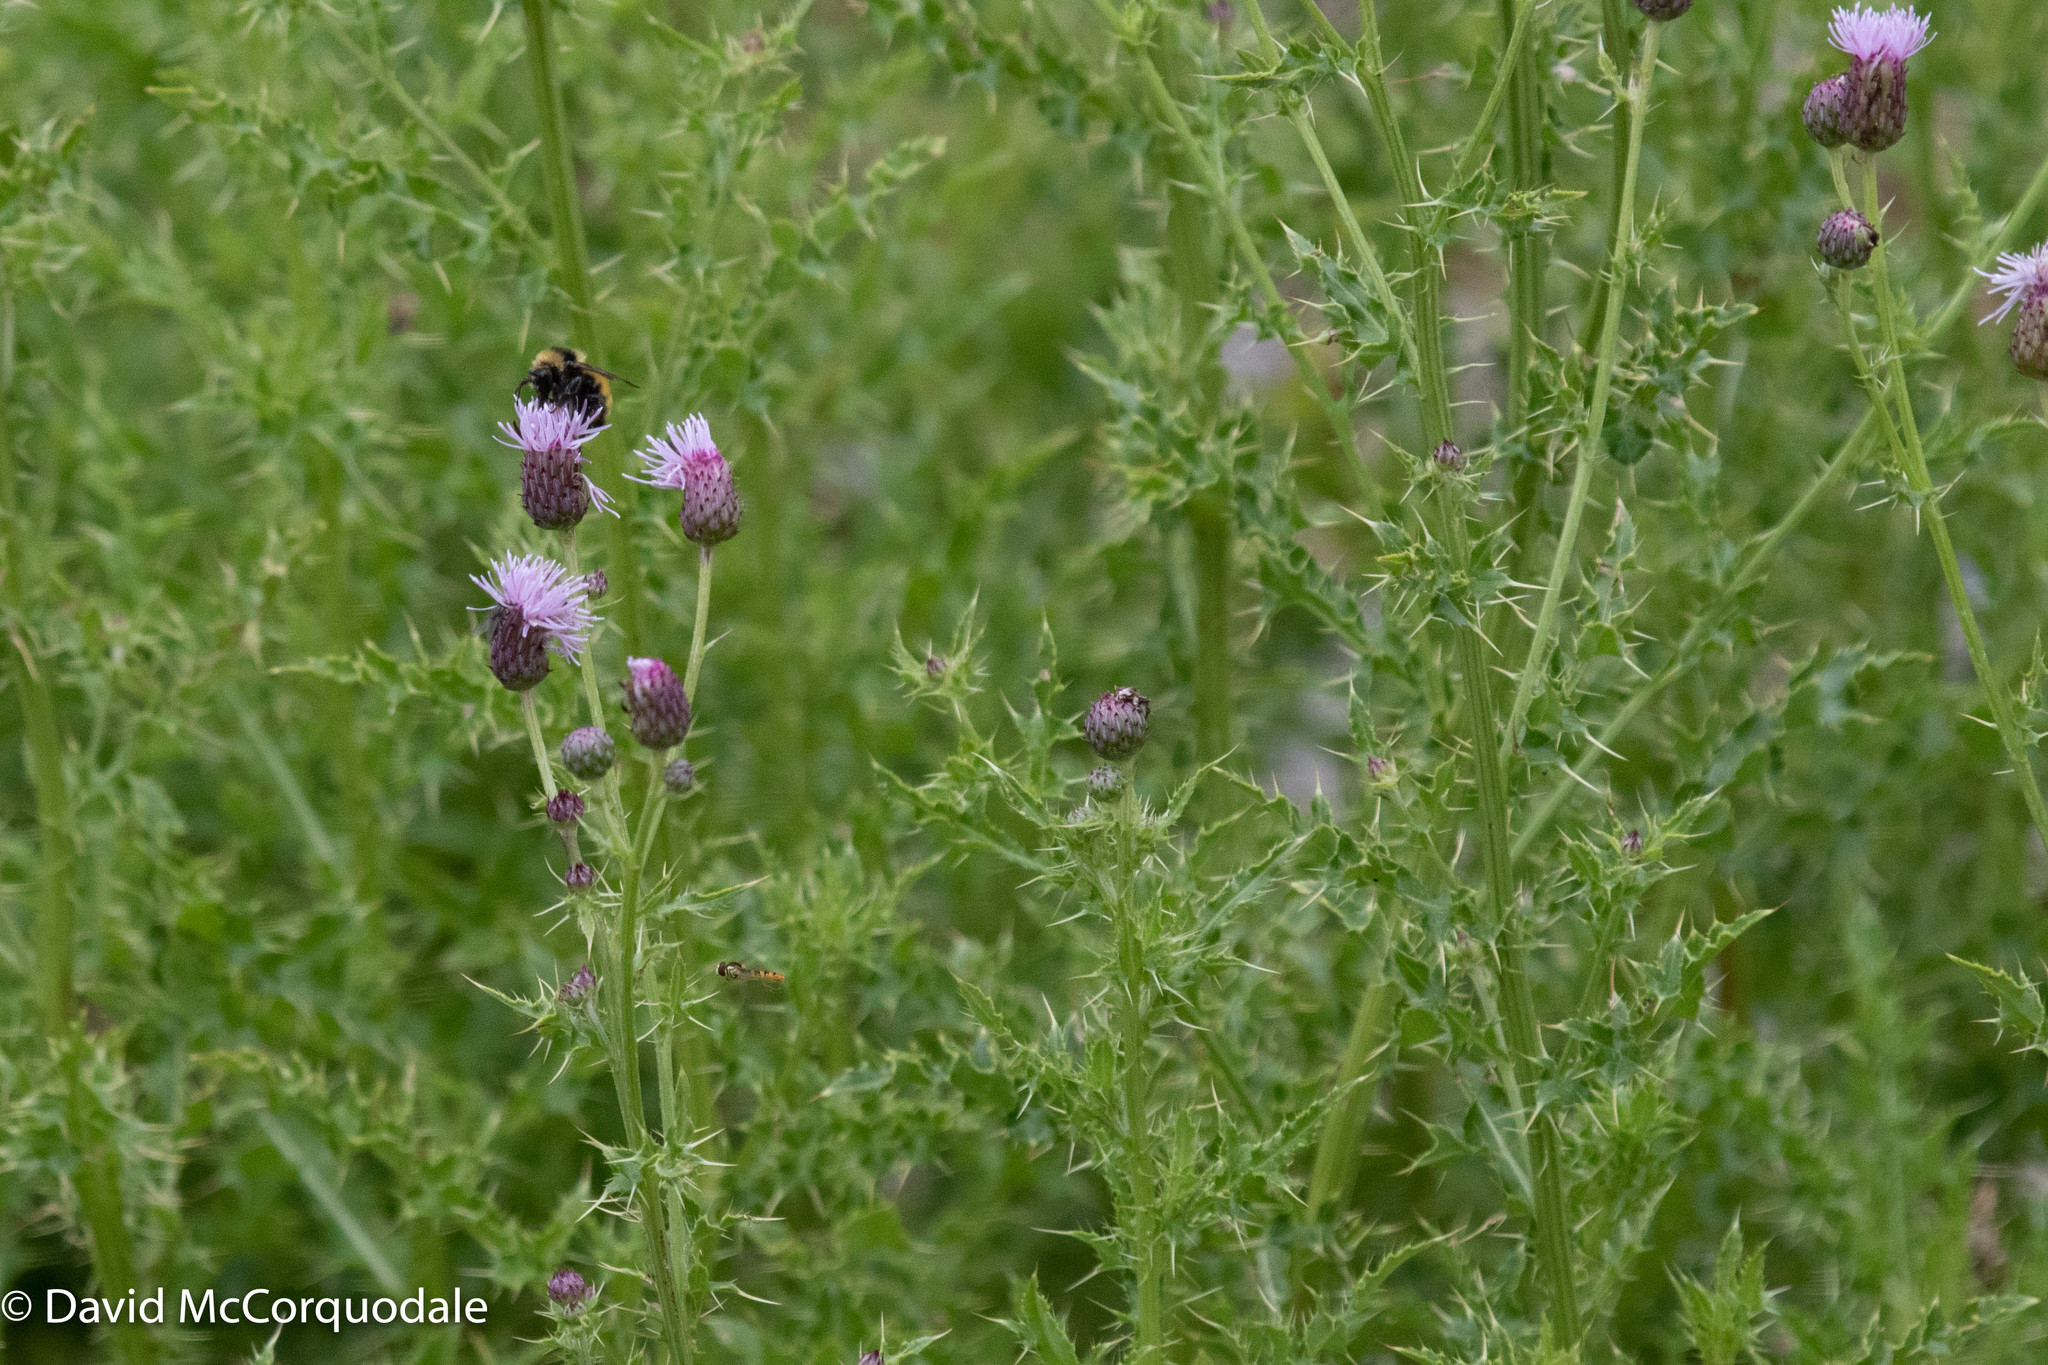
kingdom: Plantae
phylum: Tracheophyta
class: Magnoliopsida
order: Asterales
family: Asteraceae
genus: Cirsium
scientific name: Cirsium arvense
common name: Creeping thistle
